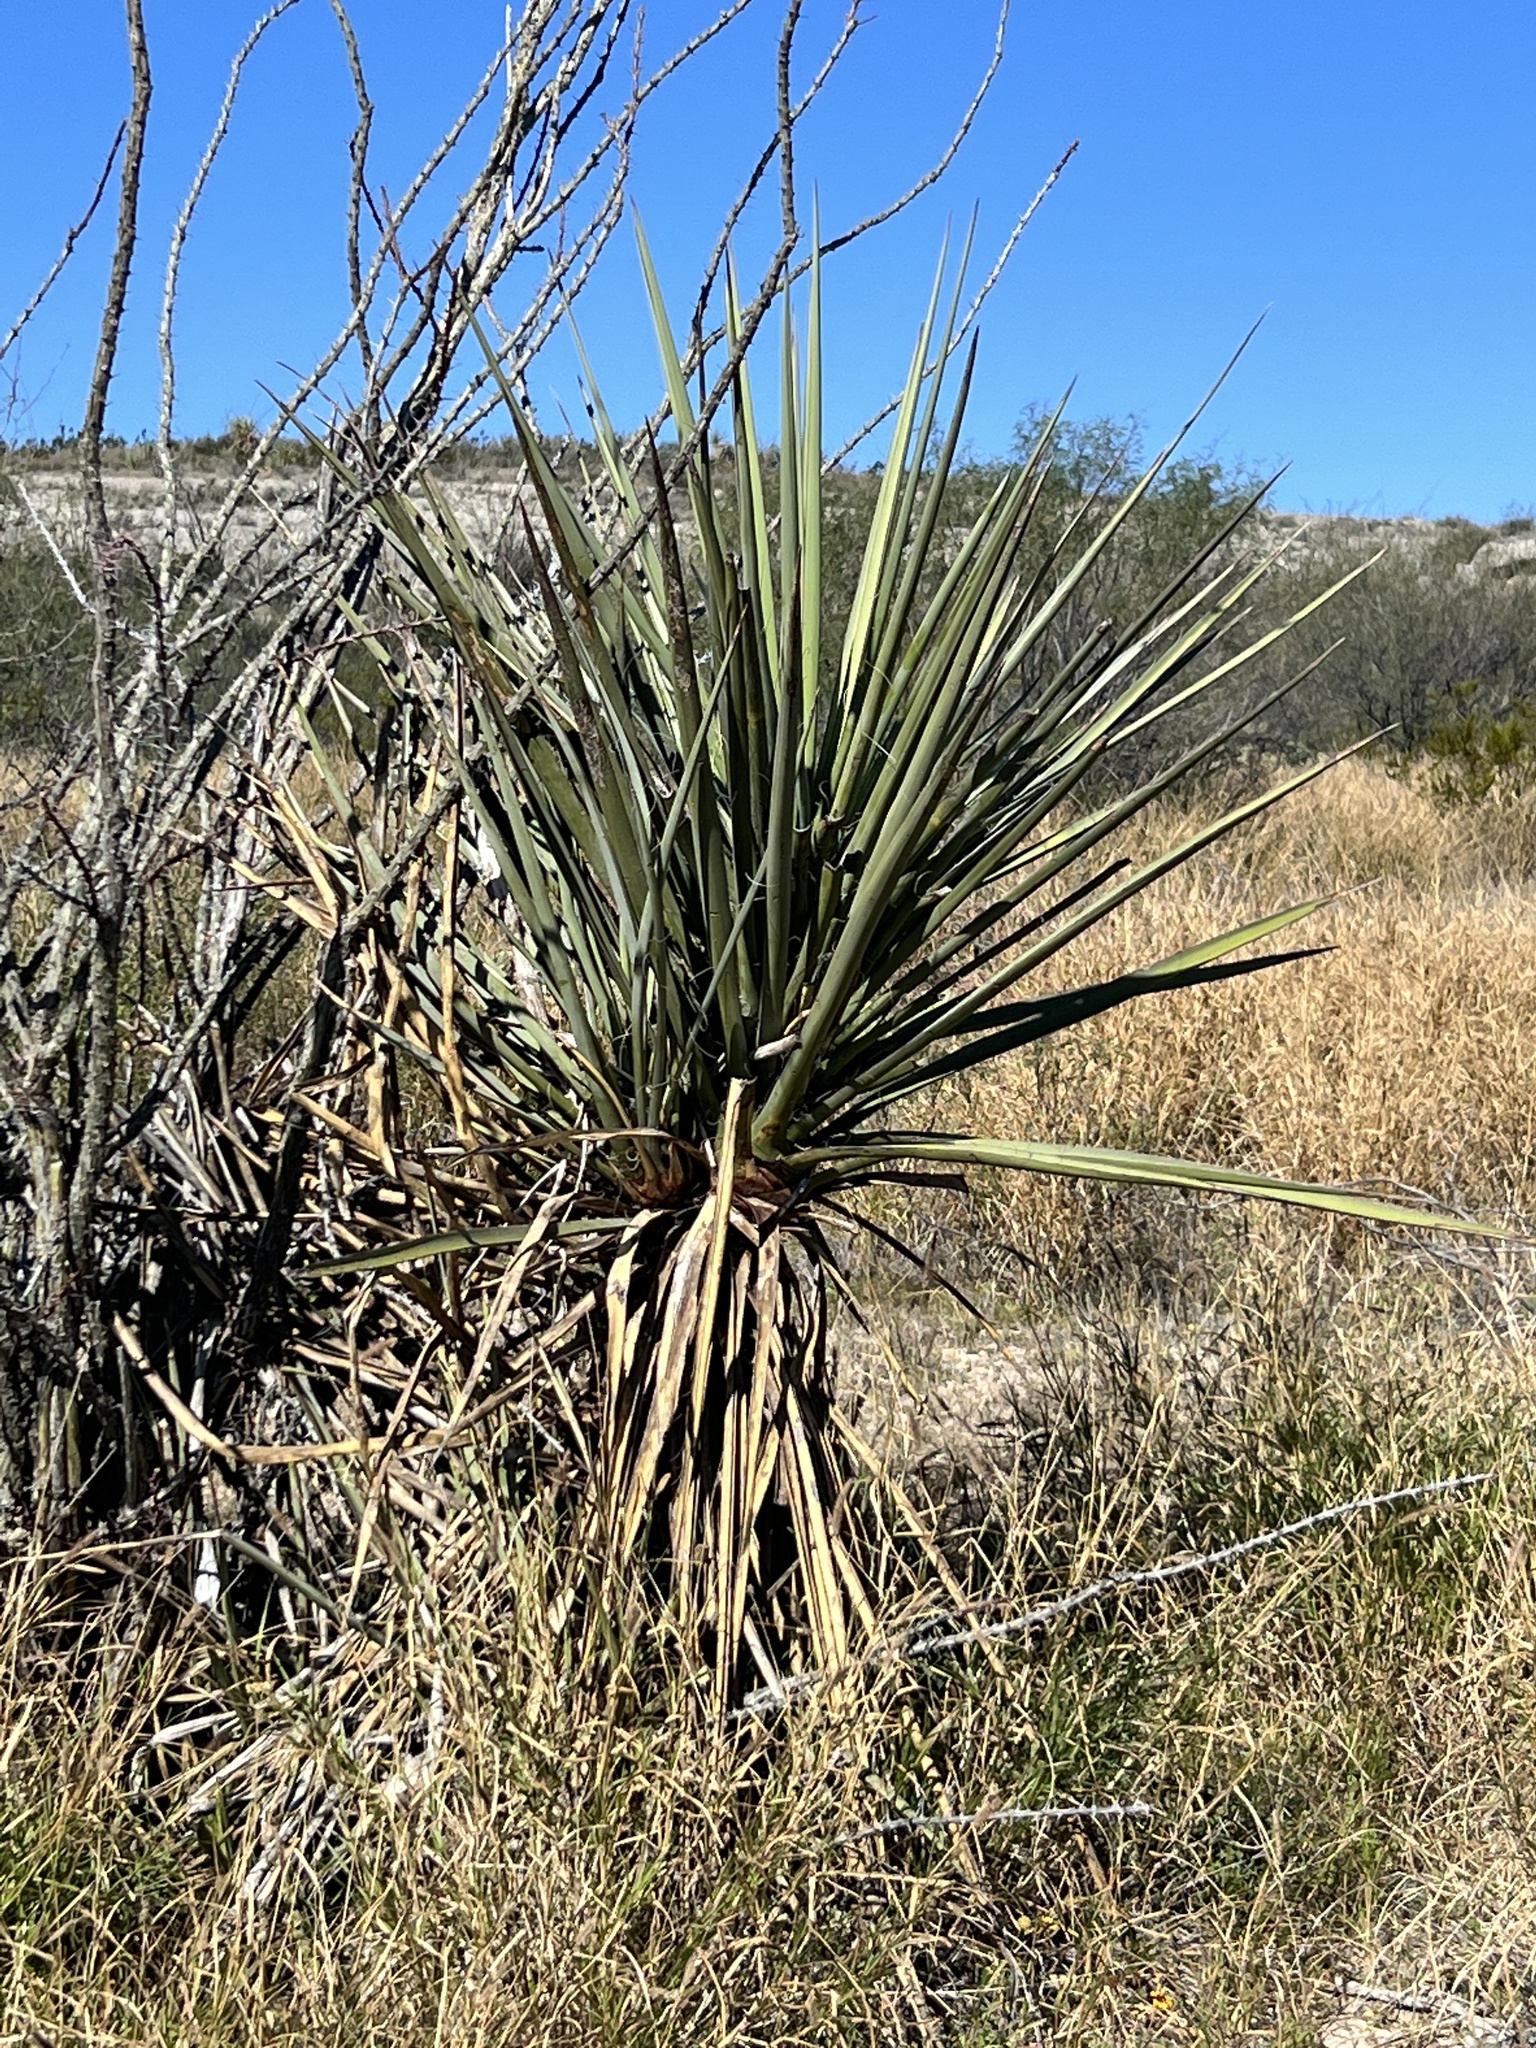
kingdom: Plantae
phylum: Tracheophyta
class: Liliopsida
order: Asparagales
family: Asparagaceae
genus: Yucca
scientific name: Yucca treculiana
